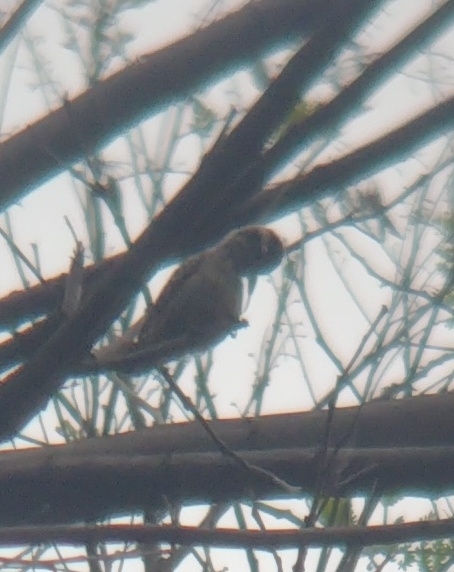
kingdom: Animalia
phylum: Chordata
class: Aves
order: Piciformes
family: Picidae
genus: Veniliornis
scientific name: Veniliornis mixtus
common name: Checkered woodpecker
